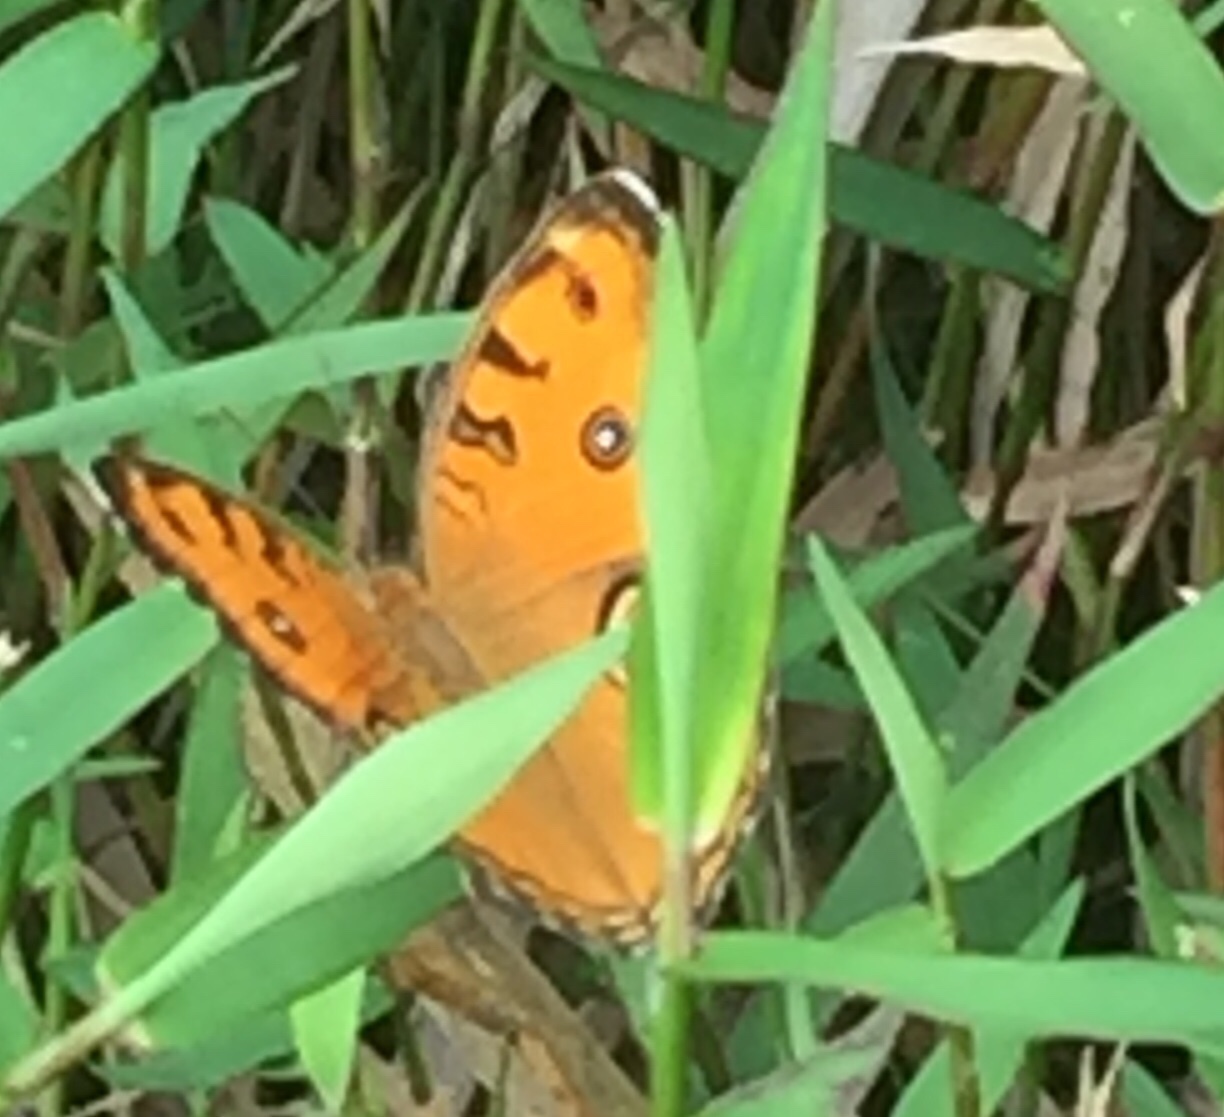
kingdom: Animalia
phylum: Arthropoda
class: Insecta
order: Lepidoptera
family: Nymphalidae
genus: Junonia
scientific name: Junonia almana
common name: Peacock pansy
